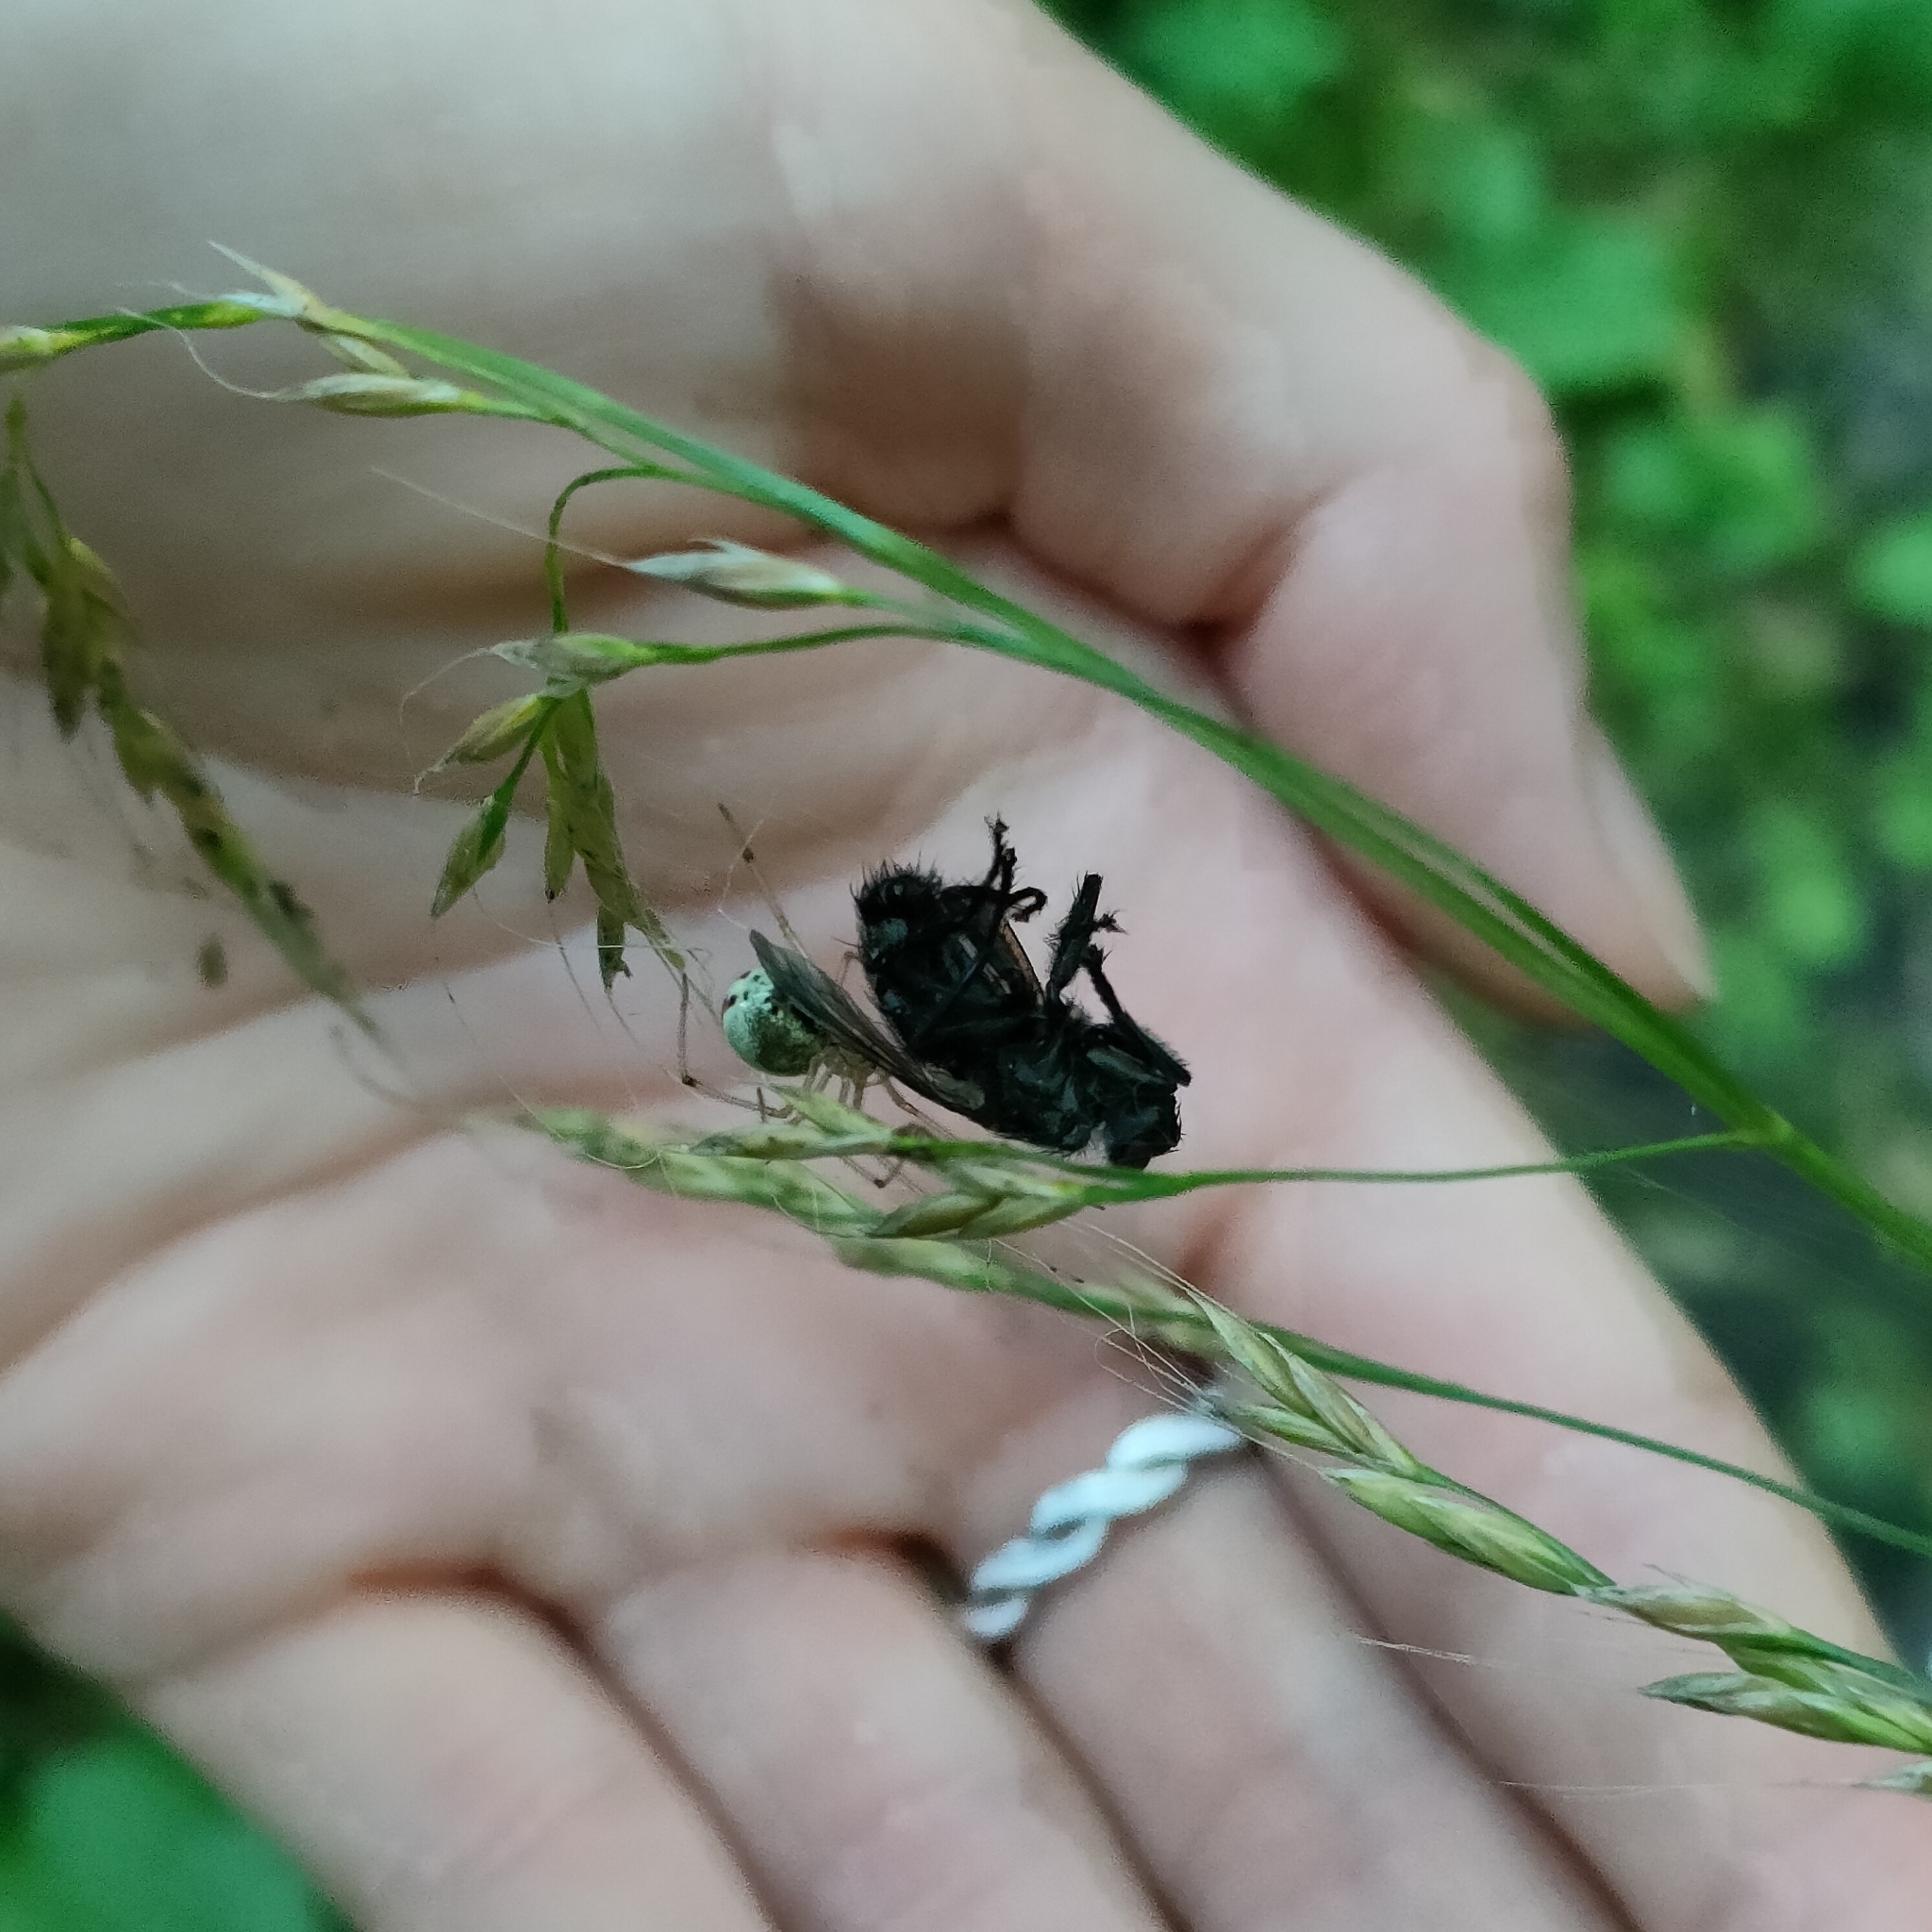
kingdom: Animalia
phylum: Arthropoda
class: Arachnida
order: Araneae
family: Theridiidae
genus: Enoplognatha
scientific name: Enoplognatha ovata
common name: Common candy-striped spider
